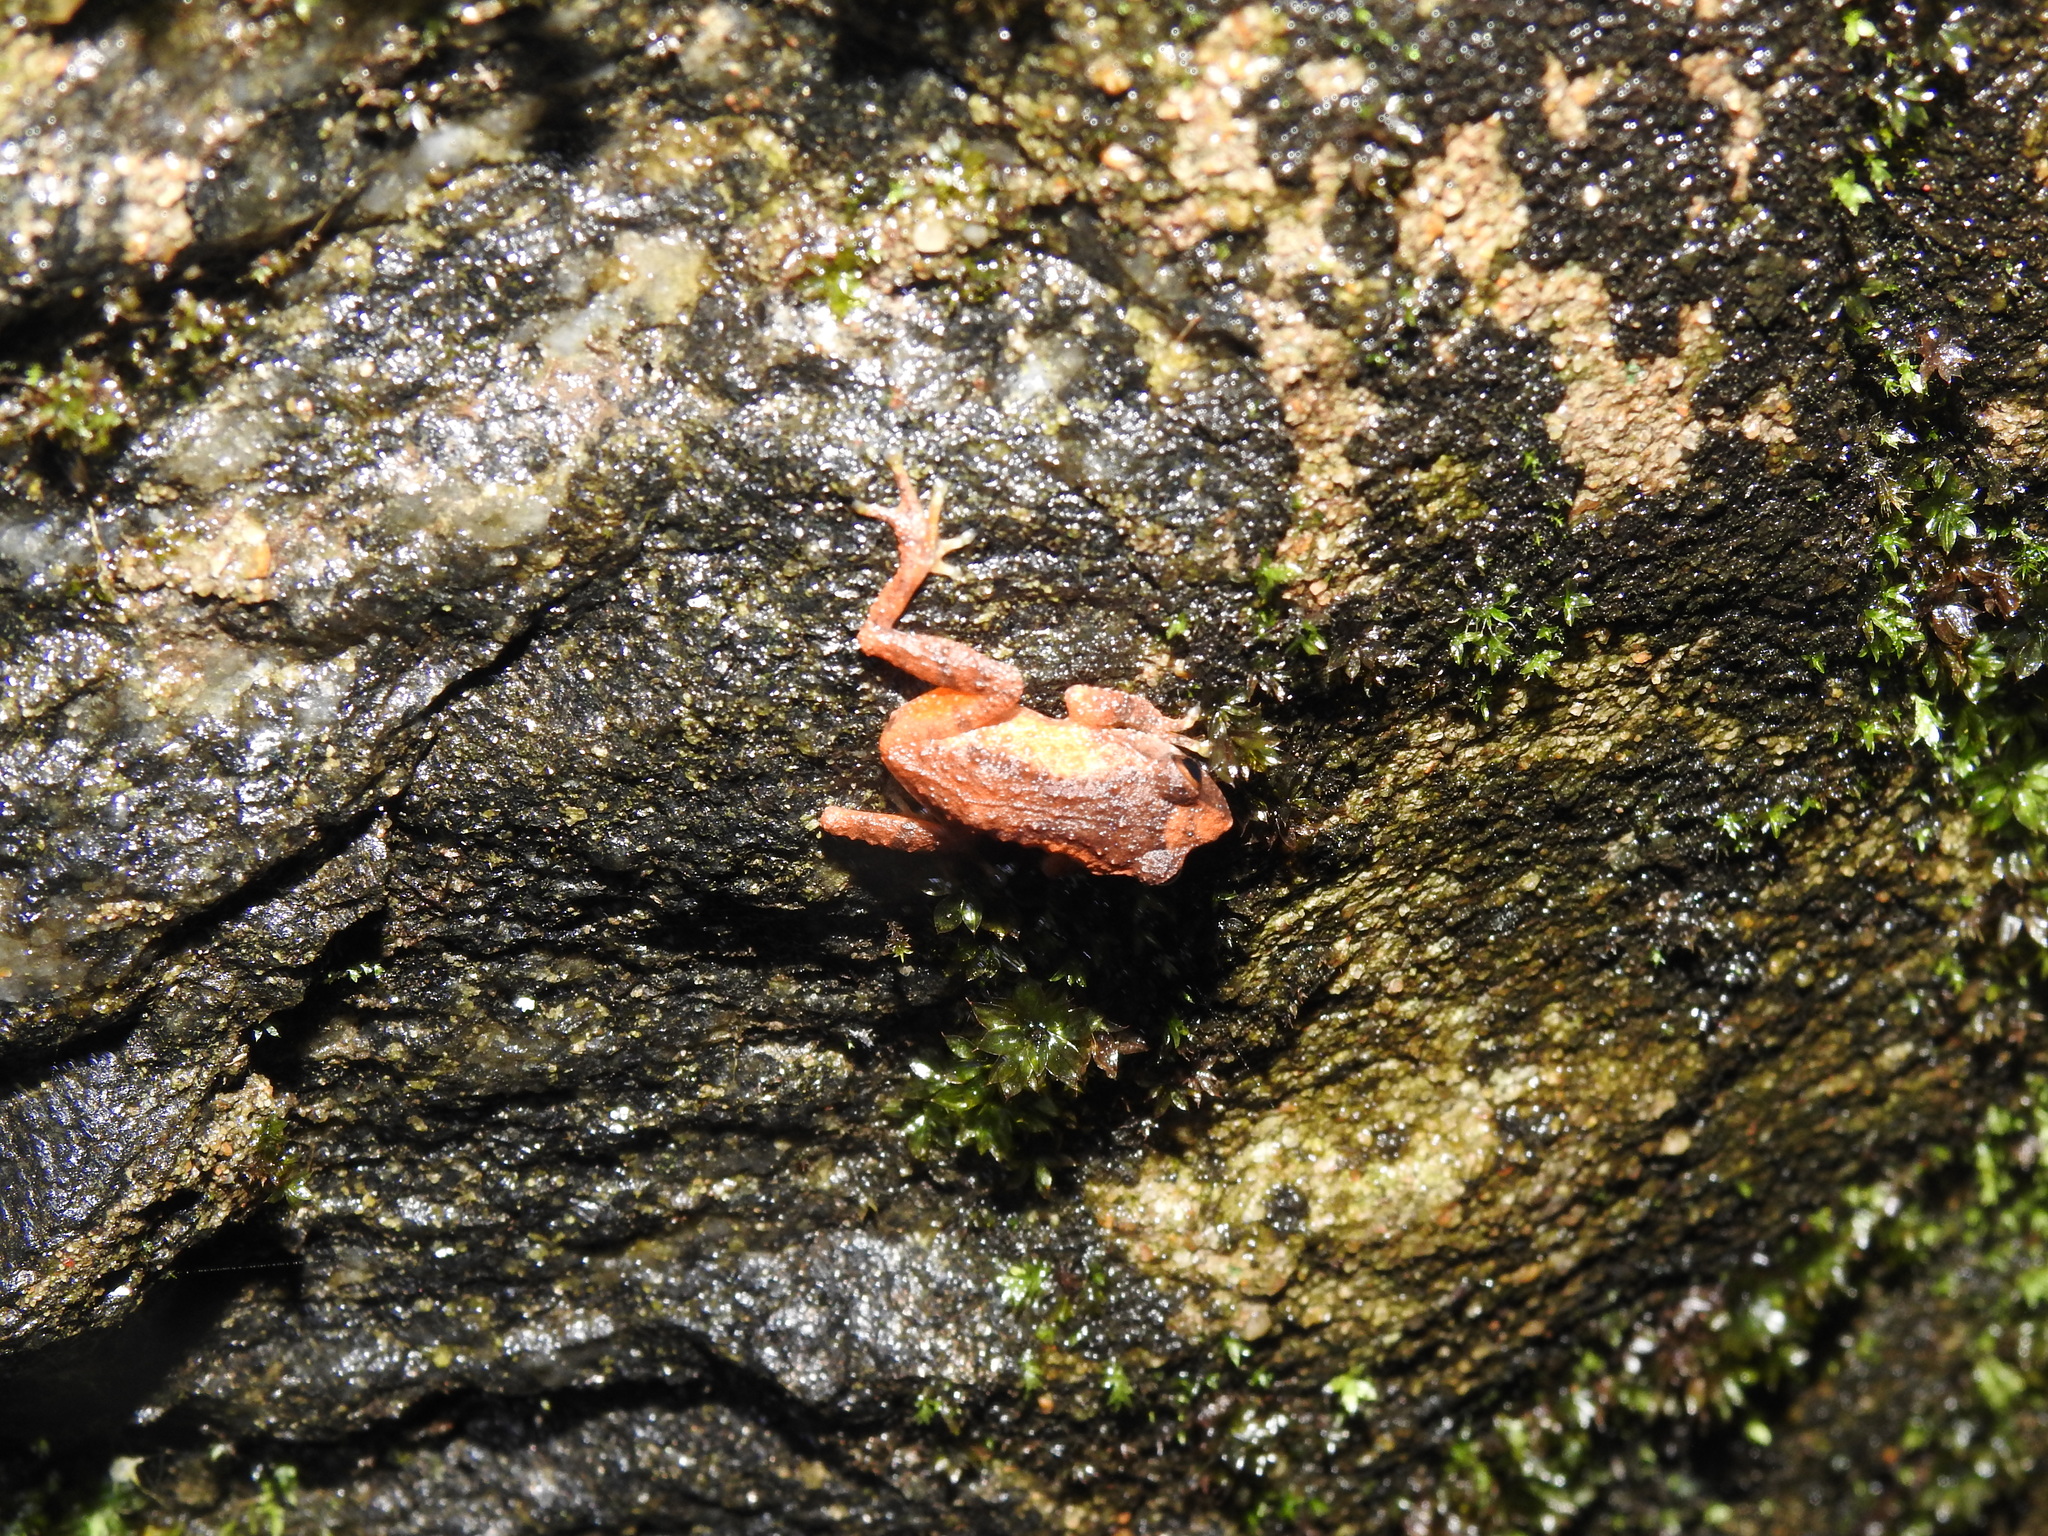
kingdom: Animalia
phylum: Chordata
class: Amphibia
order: Anura
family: Rhacophoridae
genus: Raorchestes
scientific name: Raorchestes dubois
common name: Koadaikanal bush frog
